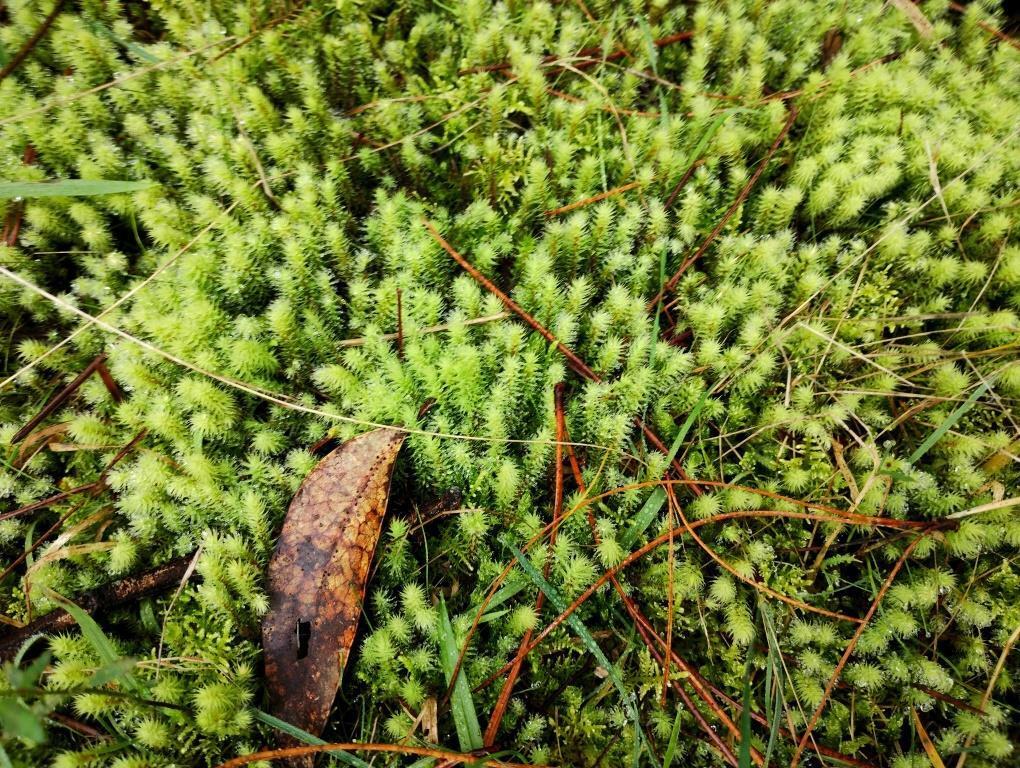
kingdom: Plantae
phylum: Bryophyta
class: Bryopsida
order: Bartramiales
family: Bartramiaceae
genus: Breutelia
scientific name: Breutelia affinis
